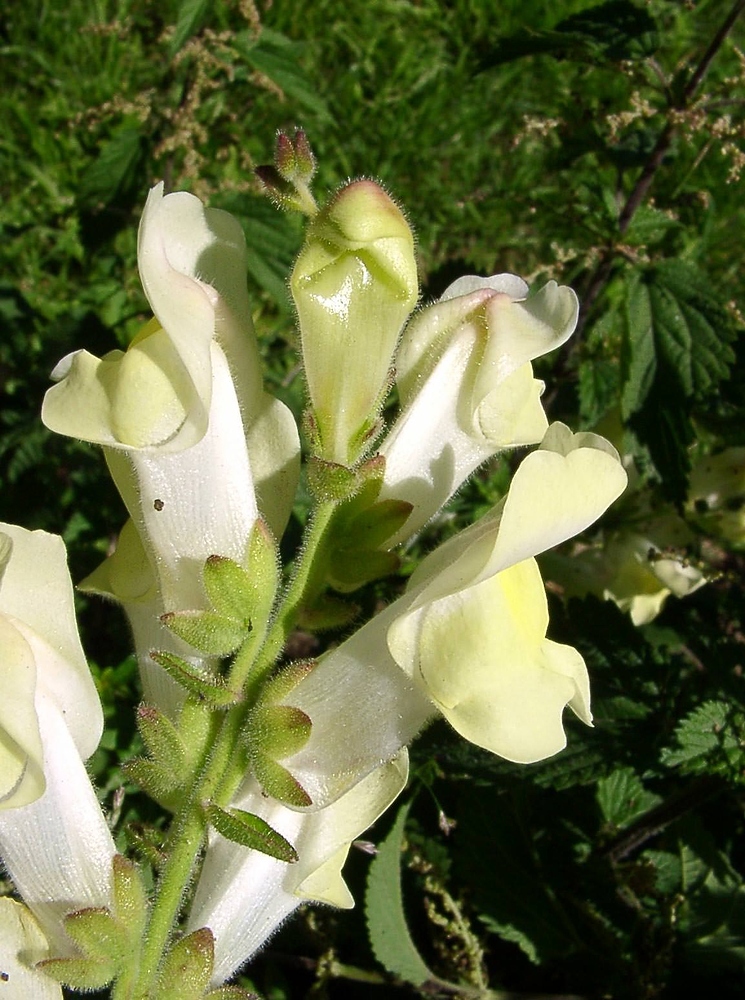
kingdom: Plantae
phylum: Tracheophyta
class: Magnoliopsida
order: Lamiales
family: Plantaginaceae
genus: Antirrhinum
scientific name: Antirrhinum latifolium
